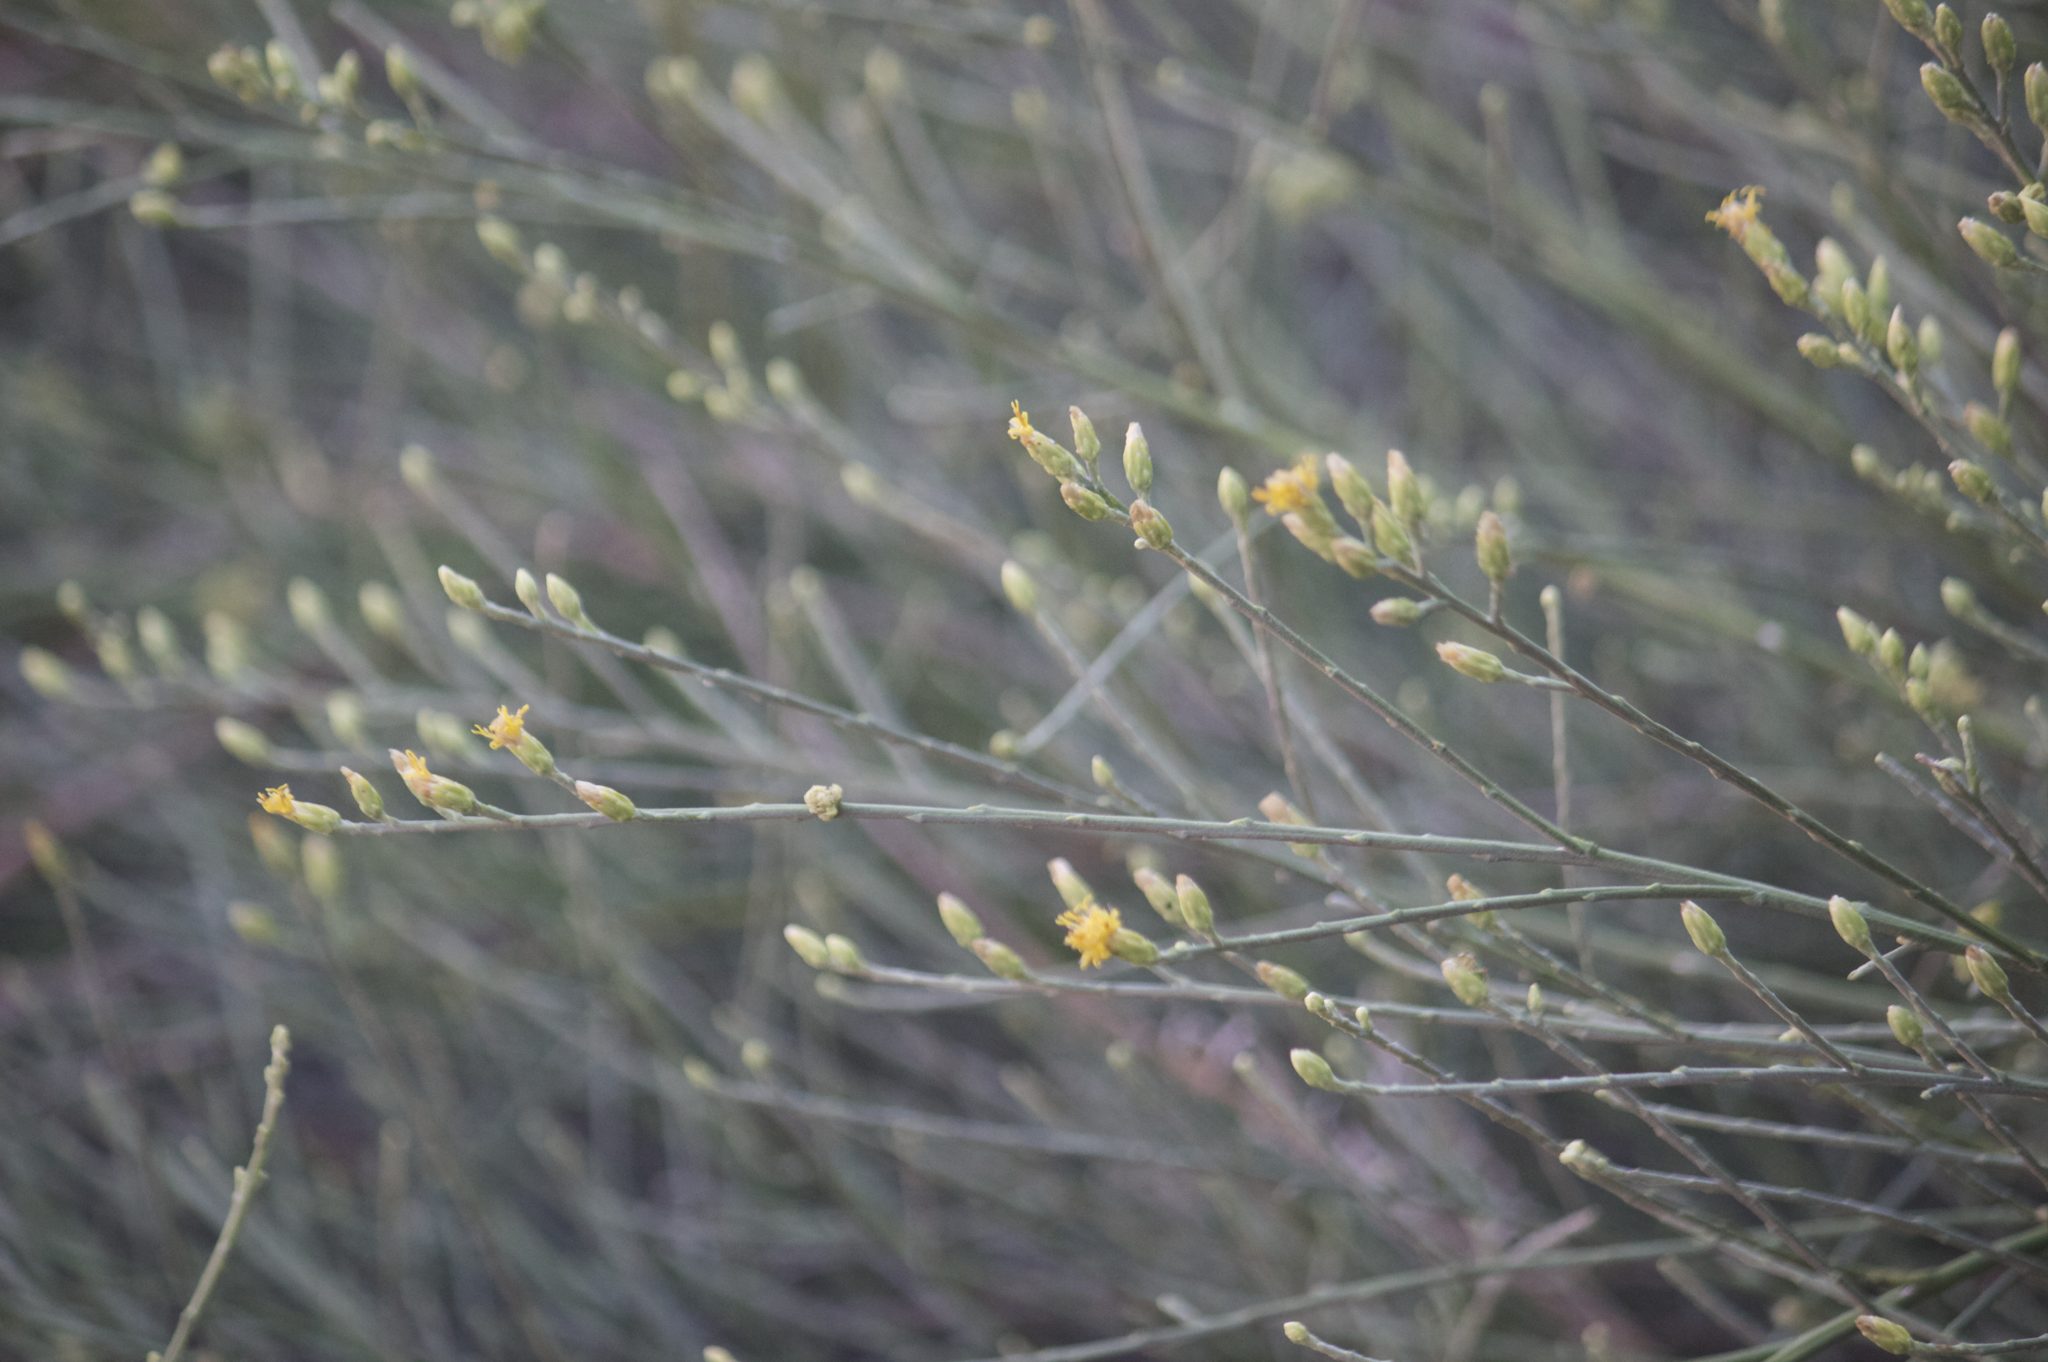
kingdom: Plantae
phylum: Tracheophyta
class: Magnoliopsida
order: Asterales
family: Asteraceae
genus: Lepidospartum
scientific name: Lepidospartum squamatum
